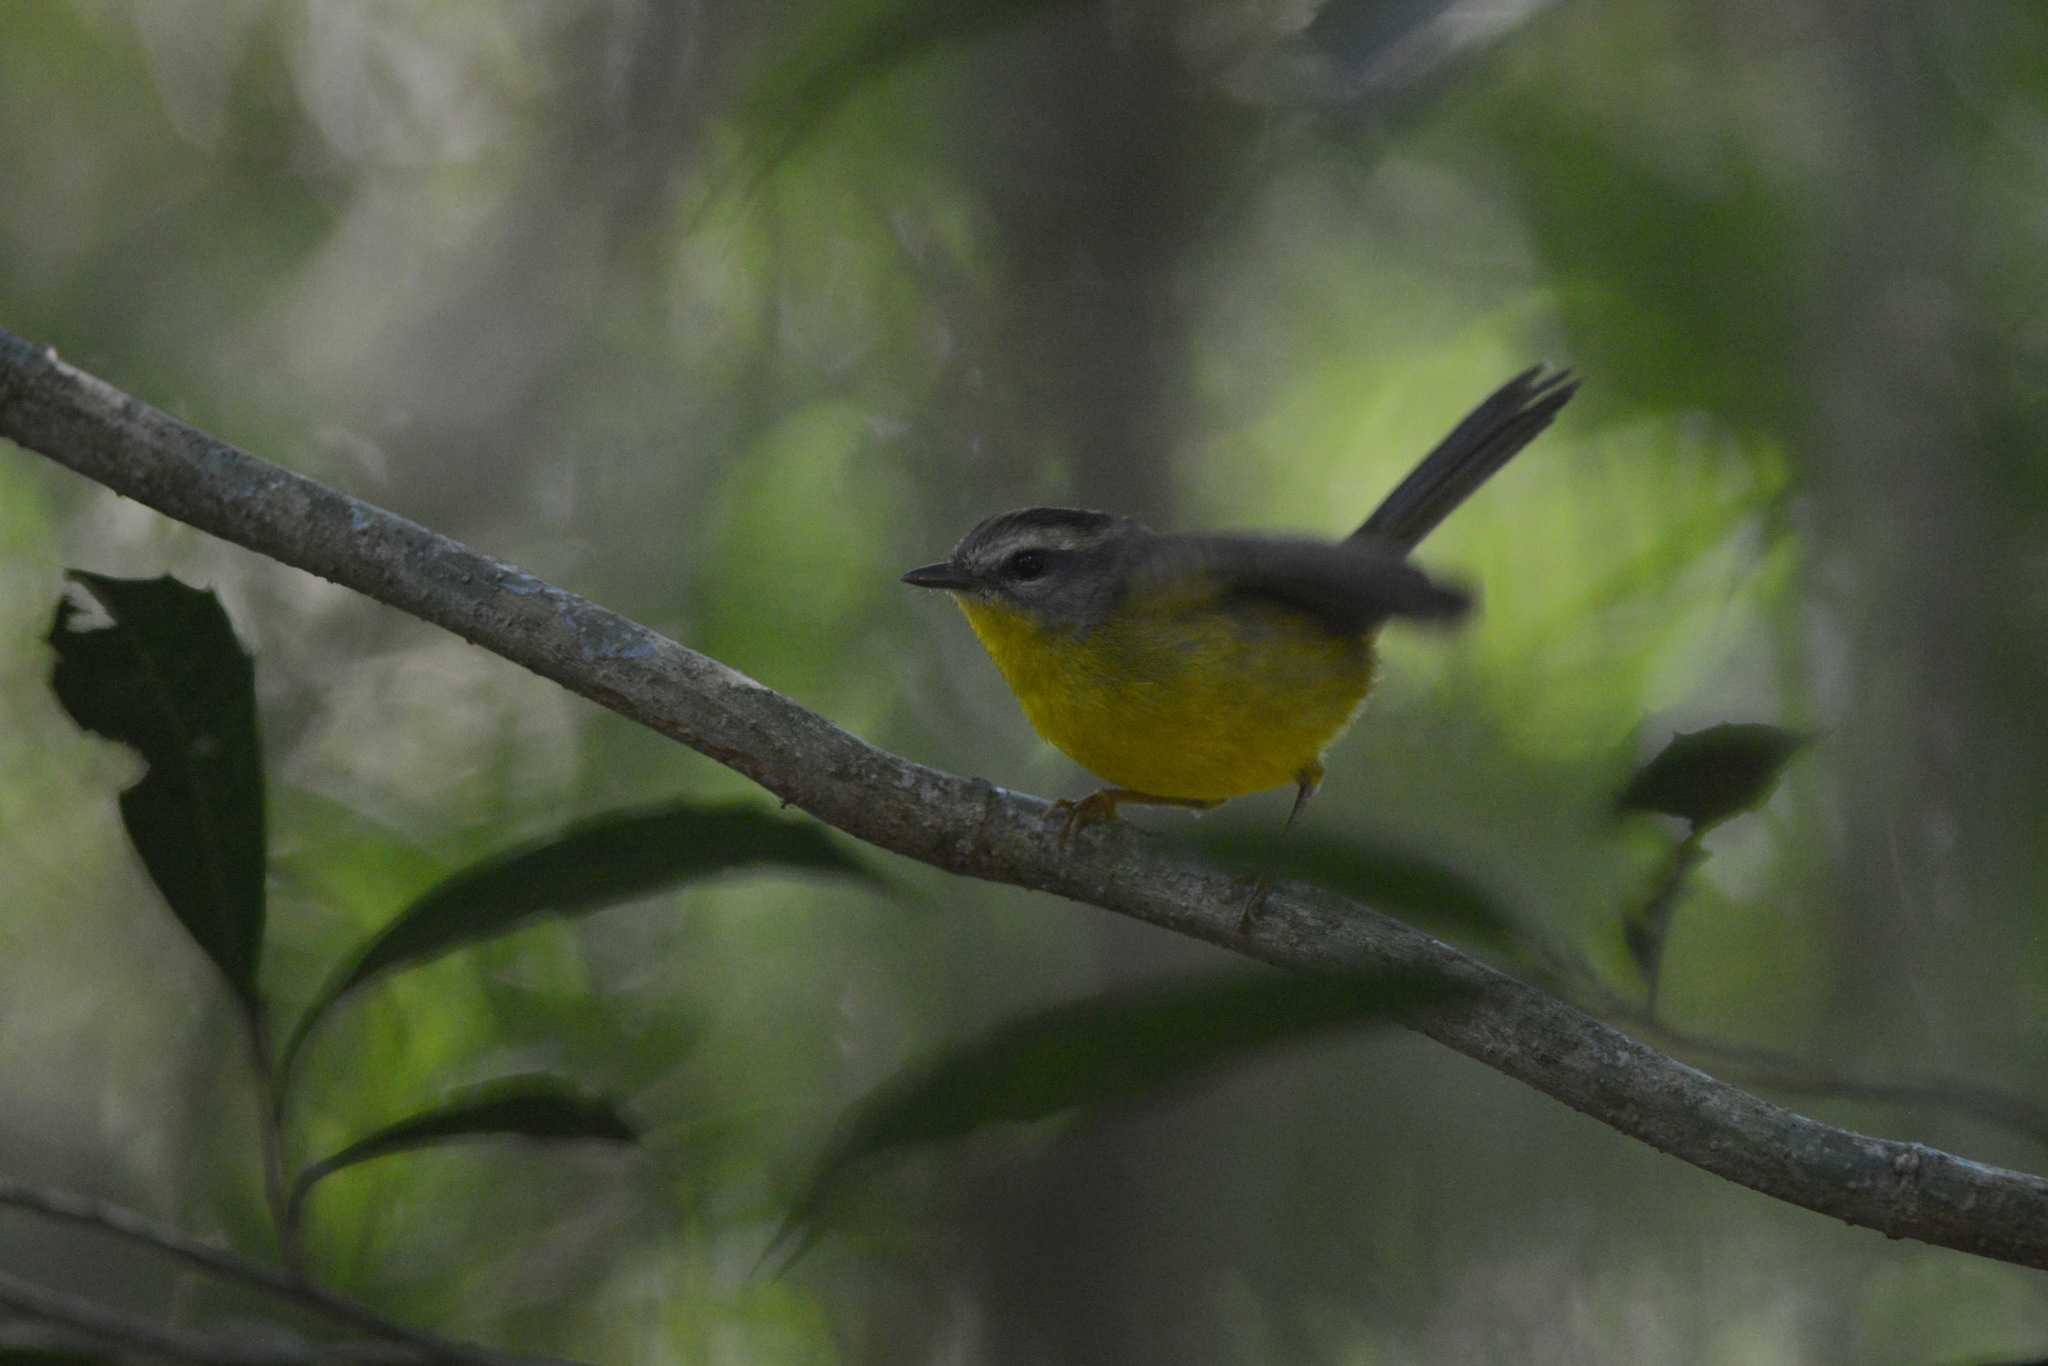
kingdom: Animalia
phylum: Chordata
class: Aves
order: Passeriformes
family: Parulidae
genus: Basileuterus
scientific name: Basileuterus culicivorus
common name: Golden-crowned warbler
